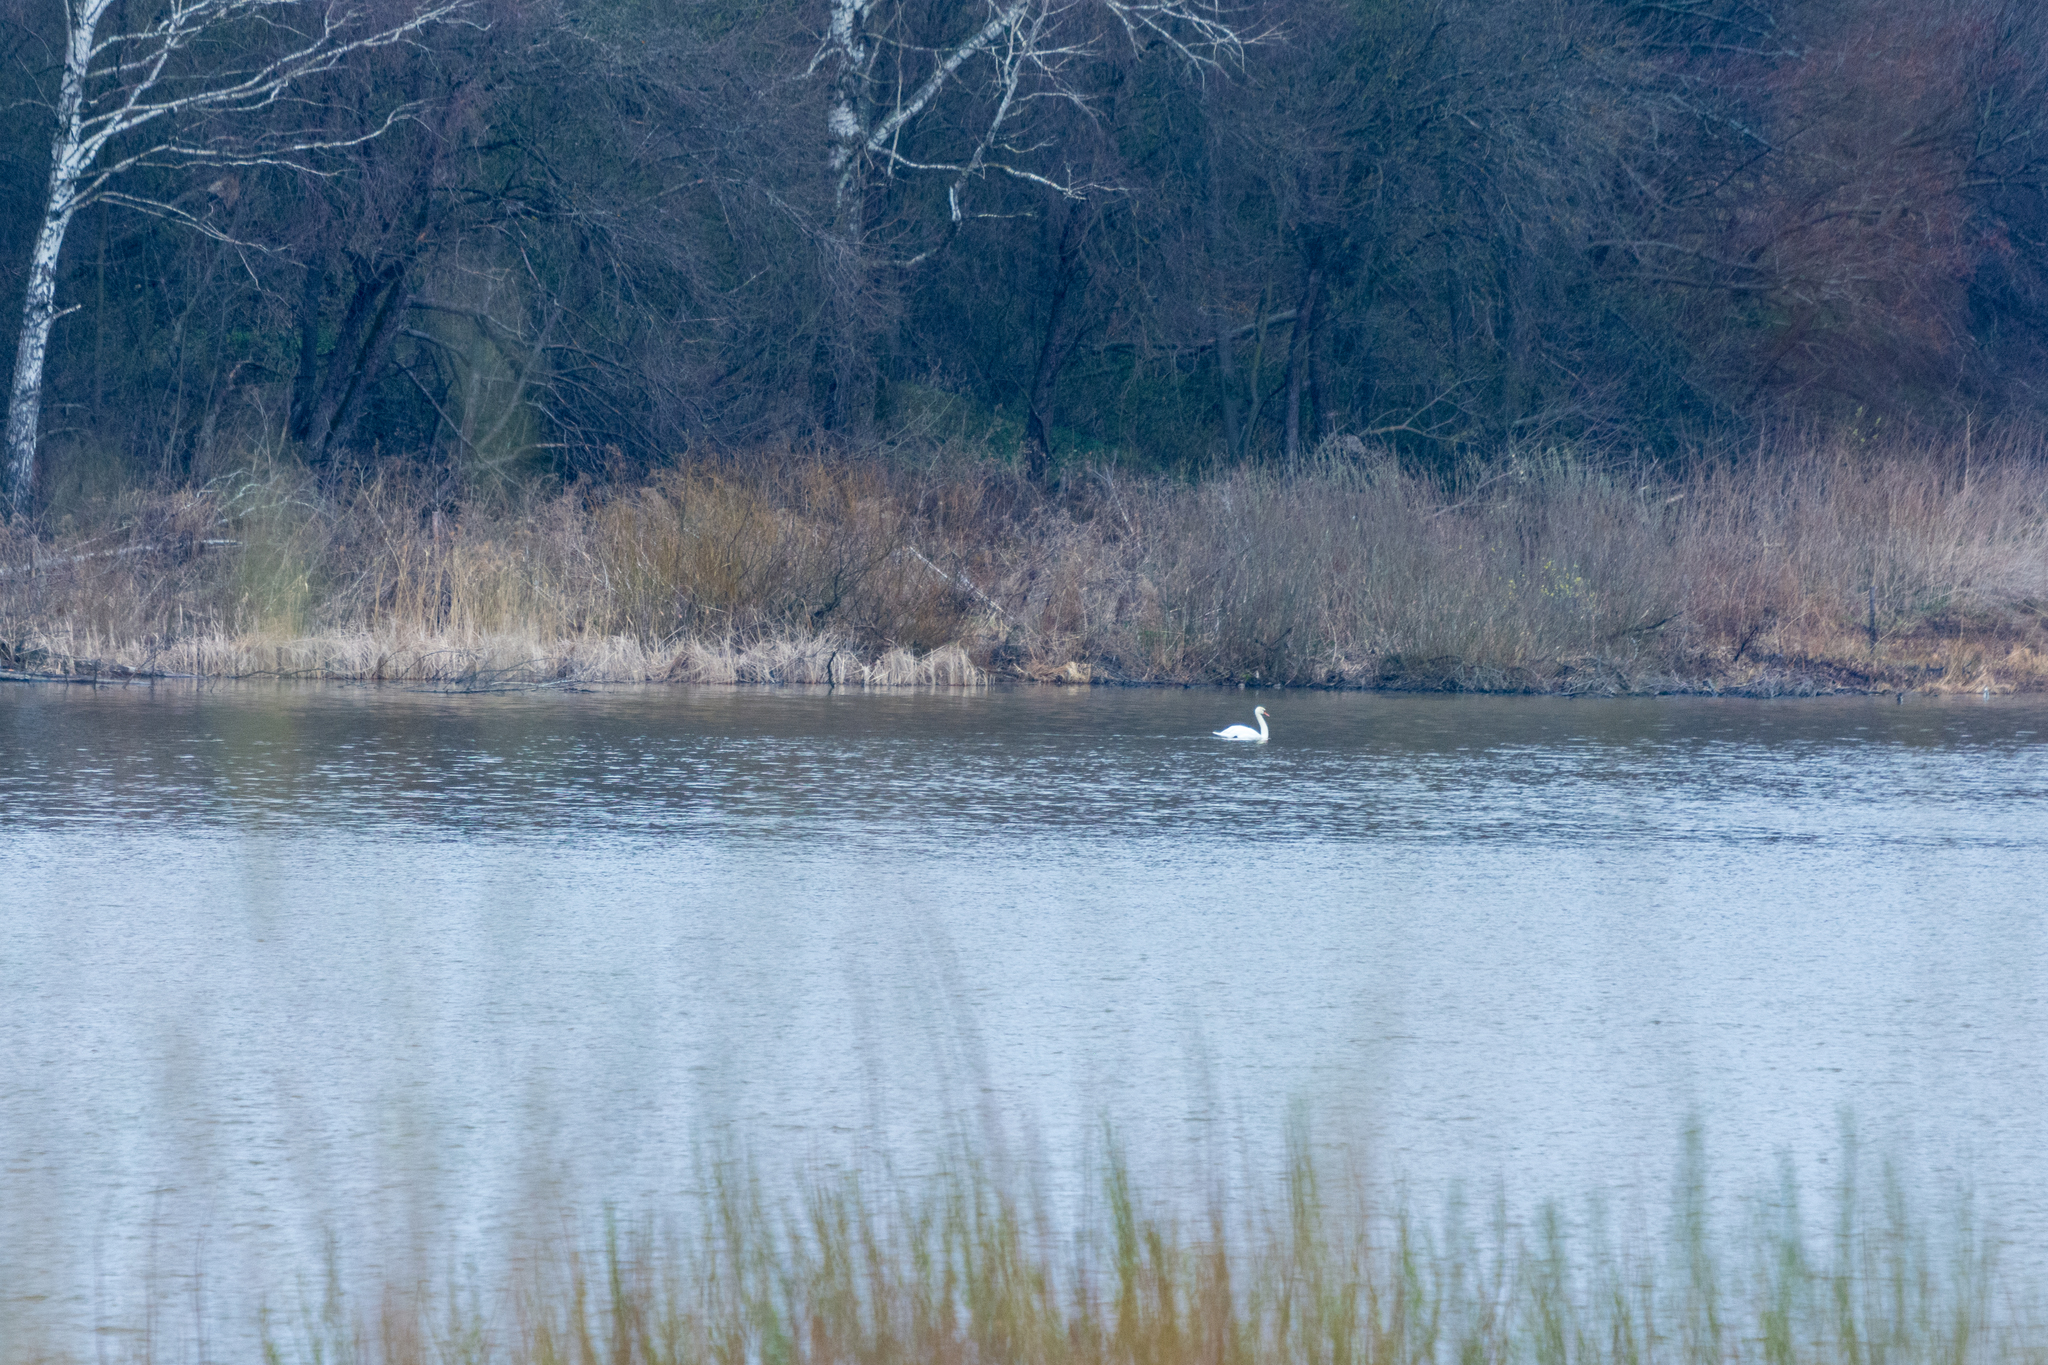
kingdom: Animalia
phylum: Chordata
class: Aves
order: Anseriformes
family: Anatidae
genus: Cygnus
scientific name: Cygnus olor
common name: Mute swan
